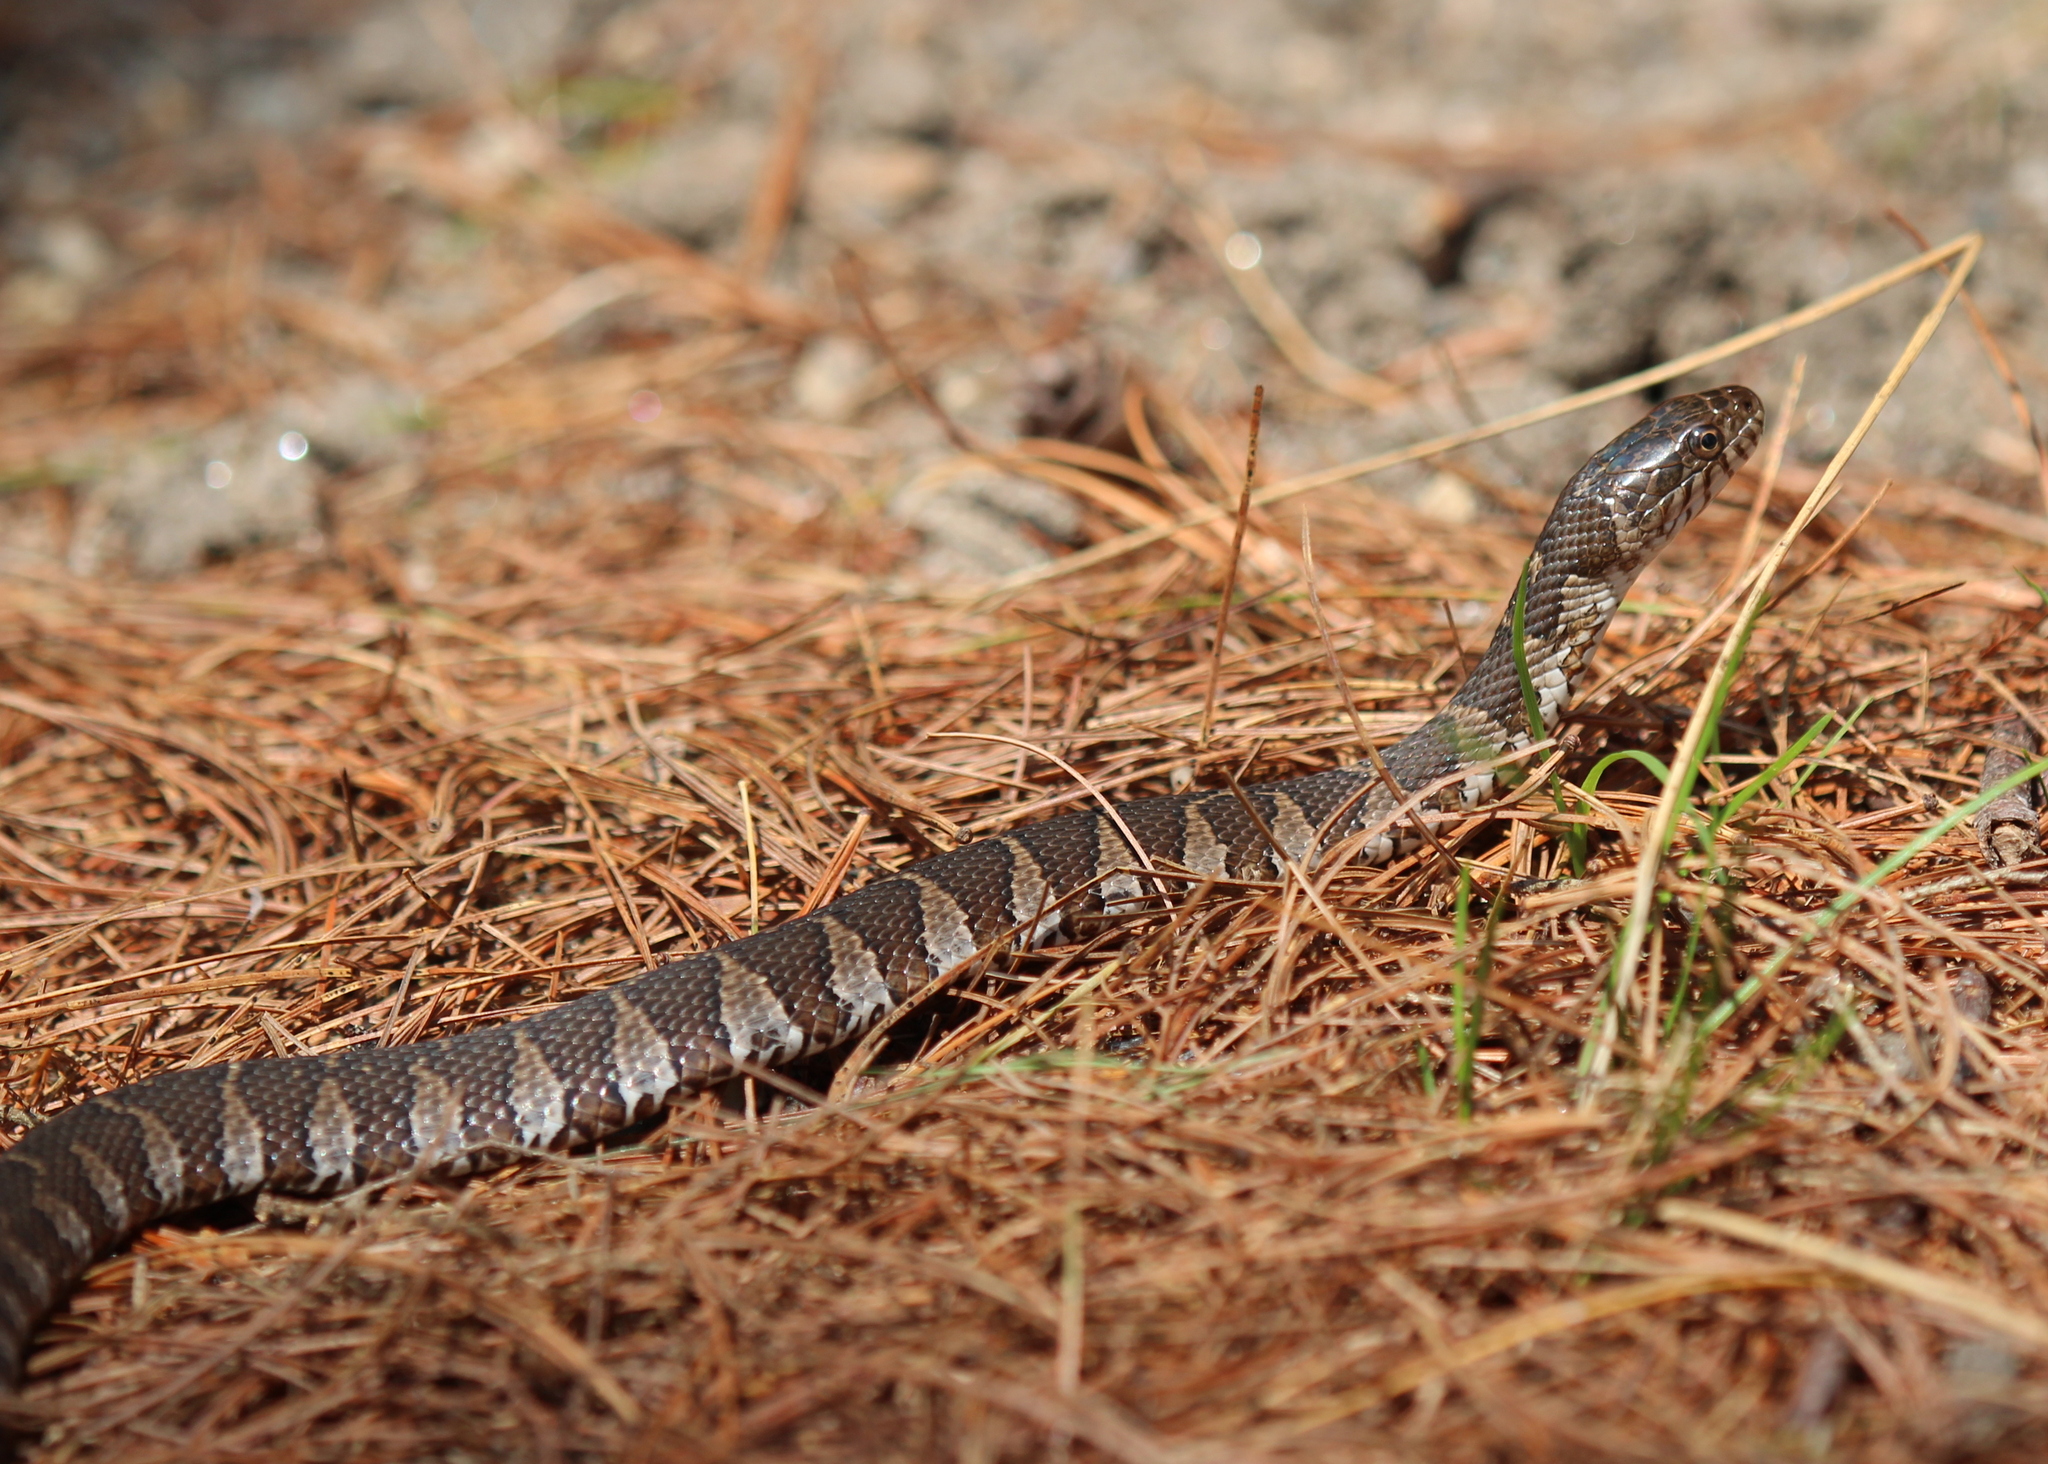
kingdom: Animalia
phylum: Chordata
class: Squamata
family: Colubridae
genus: Nerodia
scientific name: Nerodia sipedon
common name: Northern water snake
